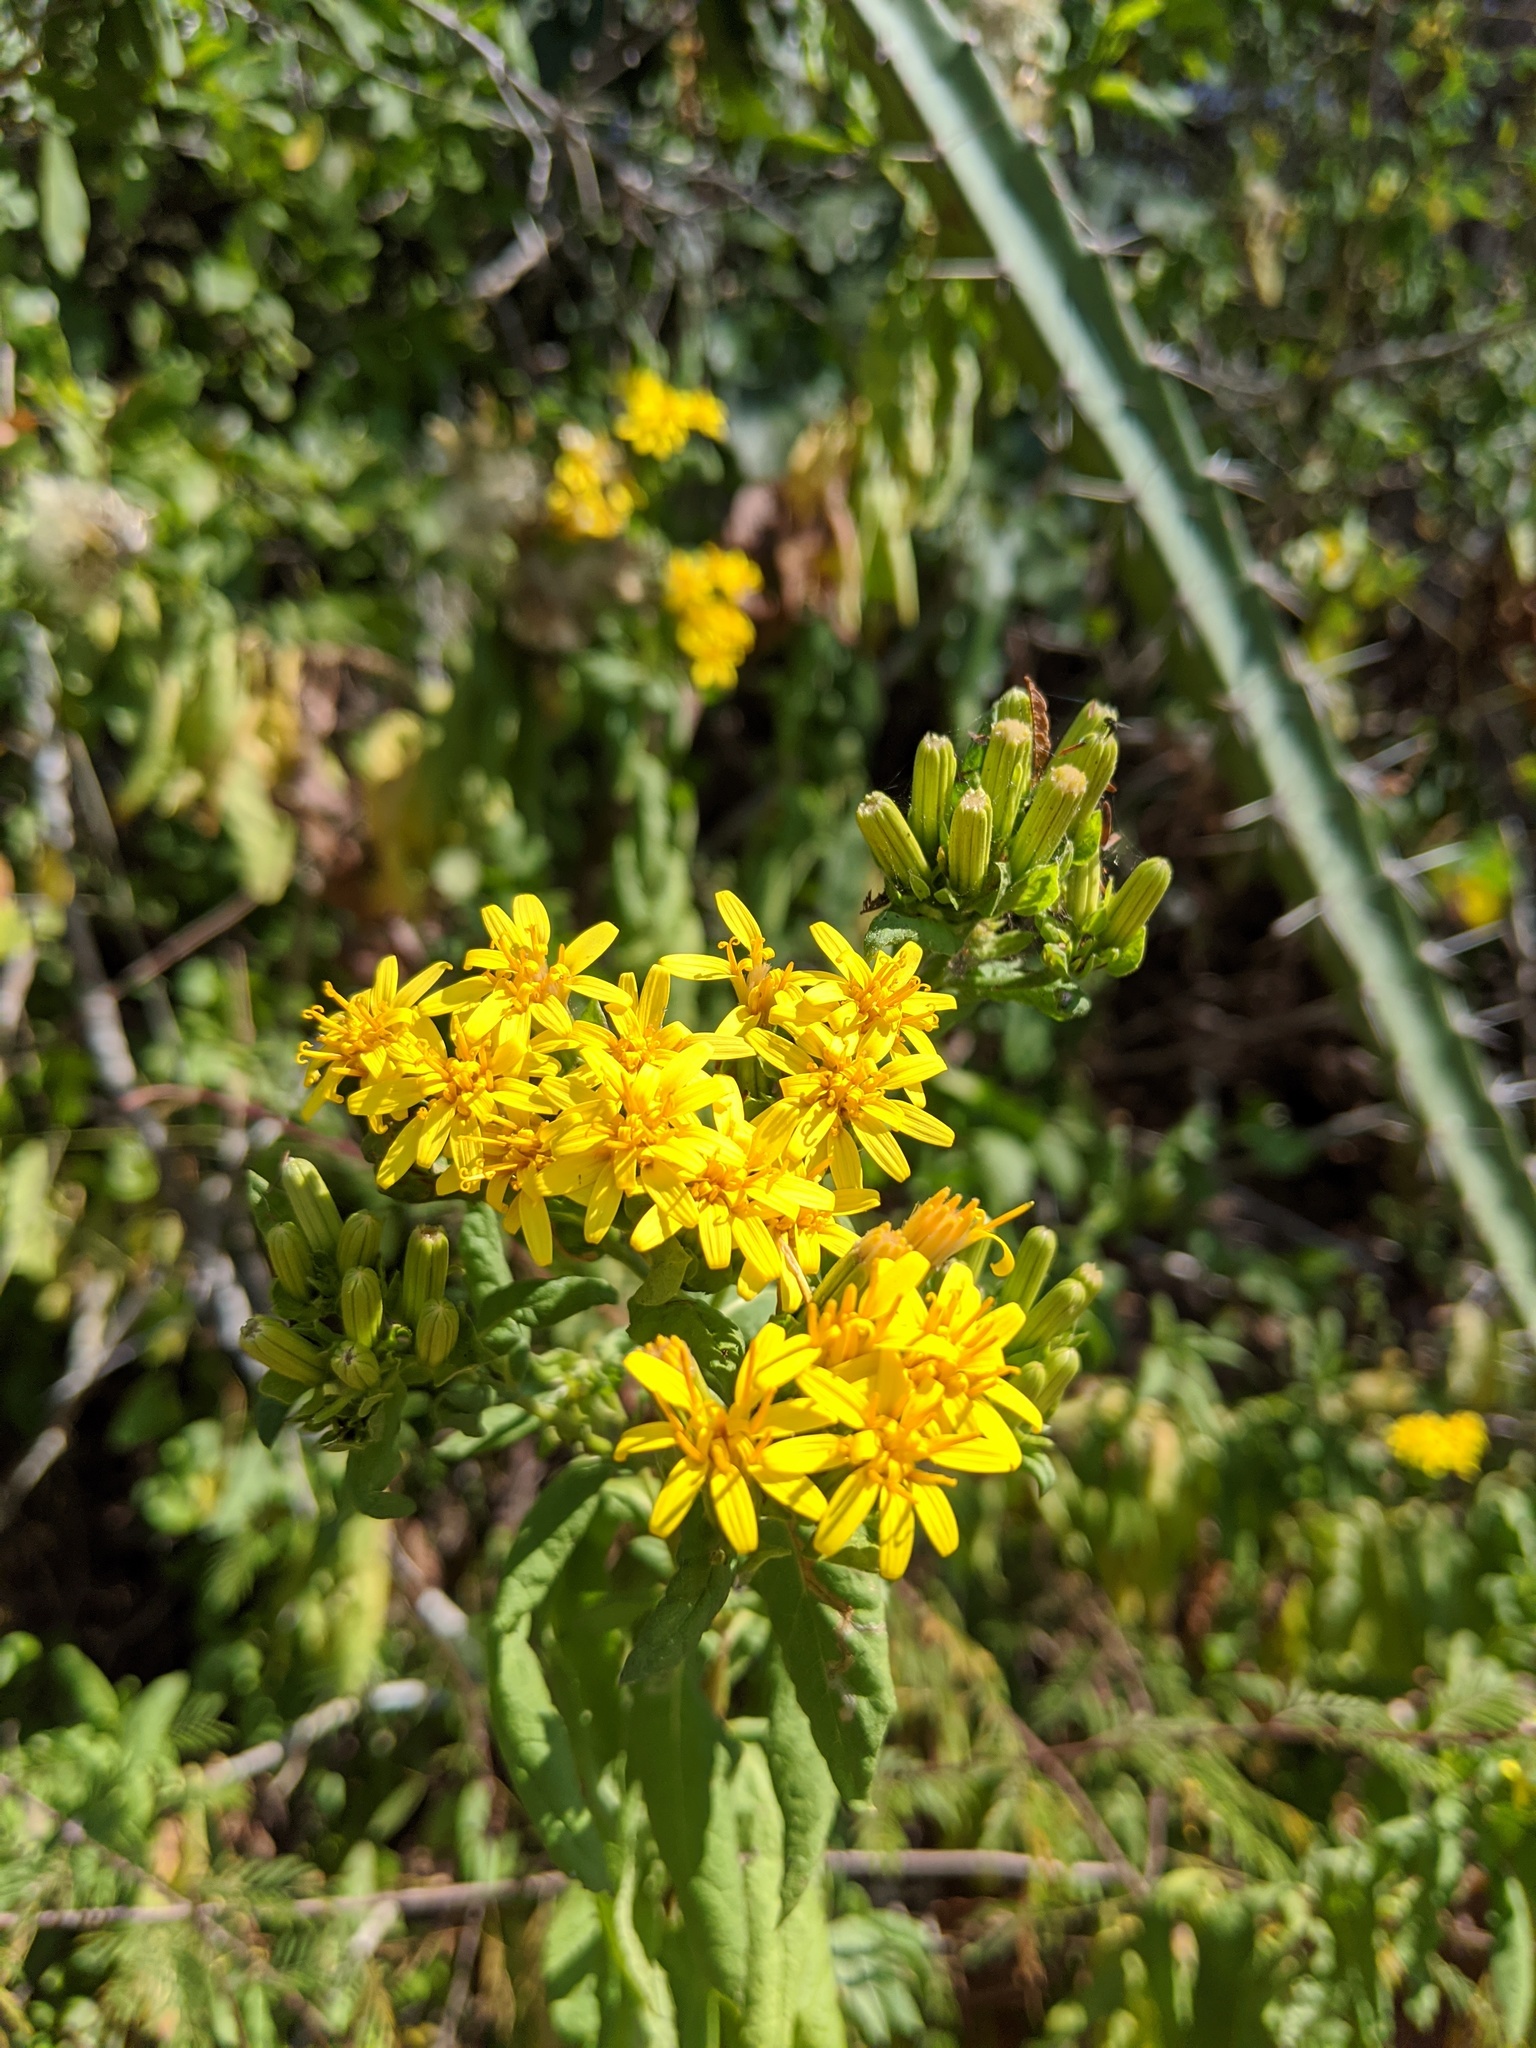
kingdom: Plantae
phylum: Tracheophyta
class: Magnoliopsida
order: Asterales
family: Asteraceae
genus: Trixis
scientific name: Trixis pterocaulis
